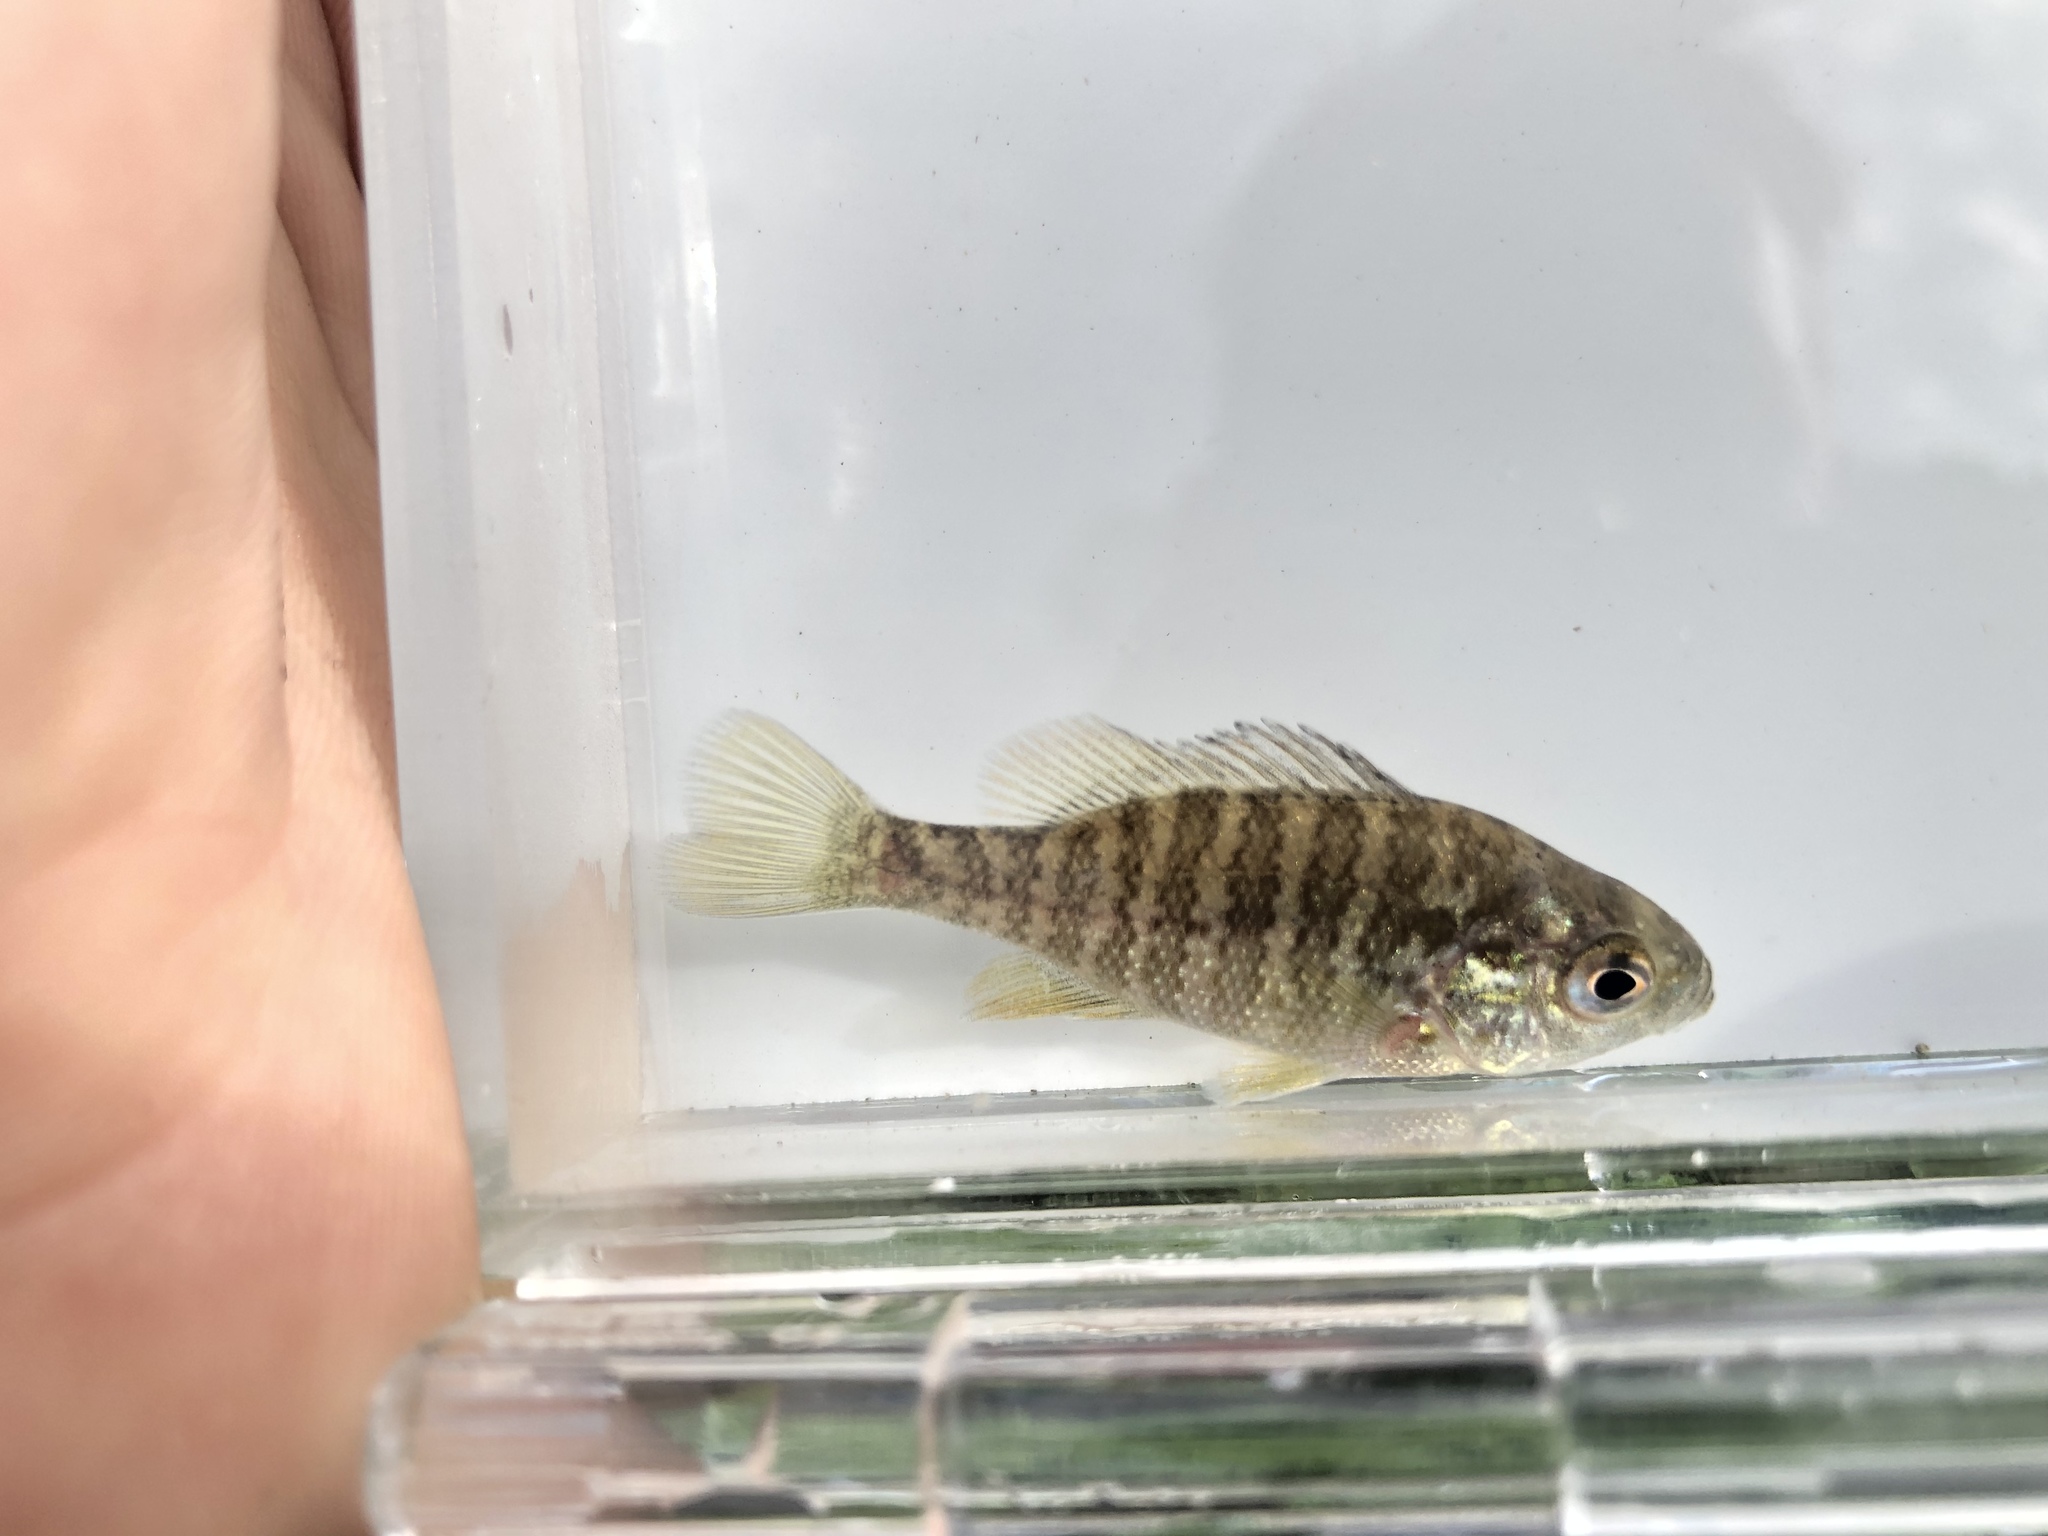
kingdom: Animalia
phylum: Chordata
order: Perciformes
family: Centrarchidae
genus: Lepomis
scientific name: Lepomis macrochirus
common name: Bluegill
